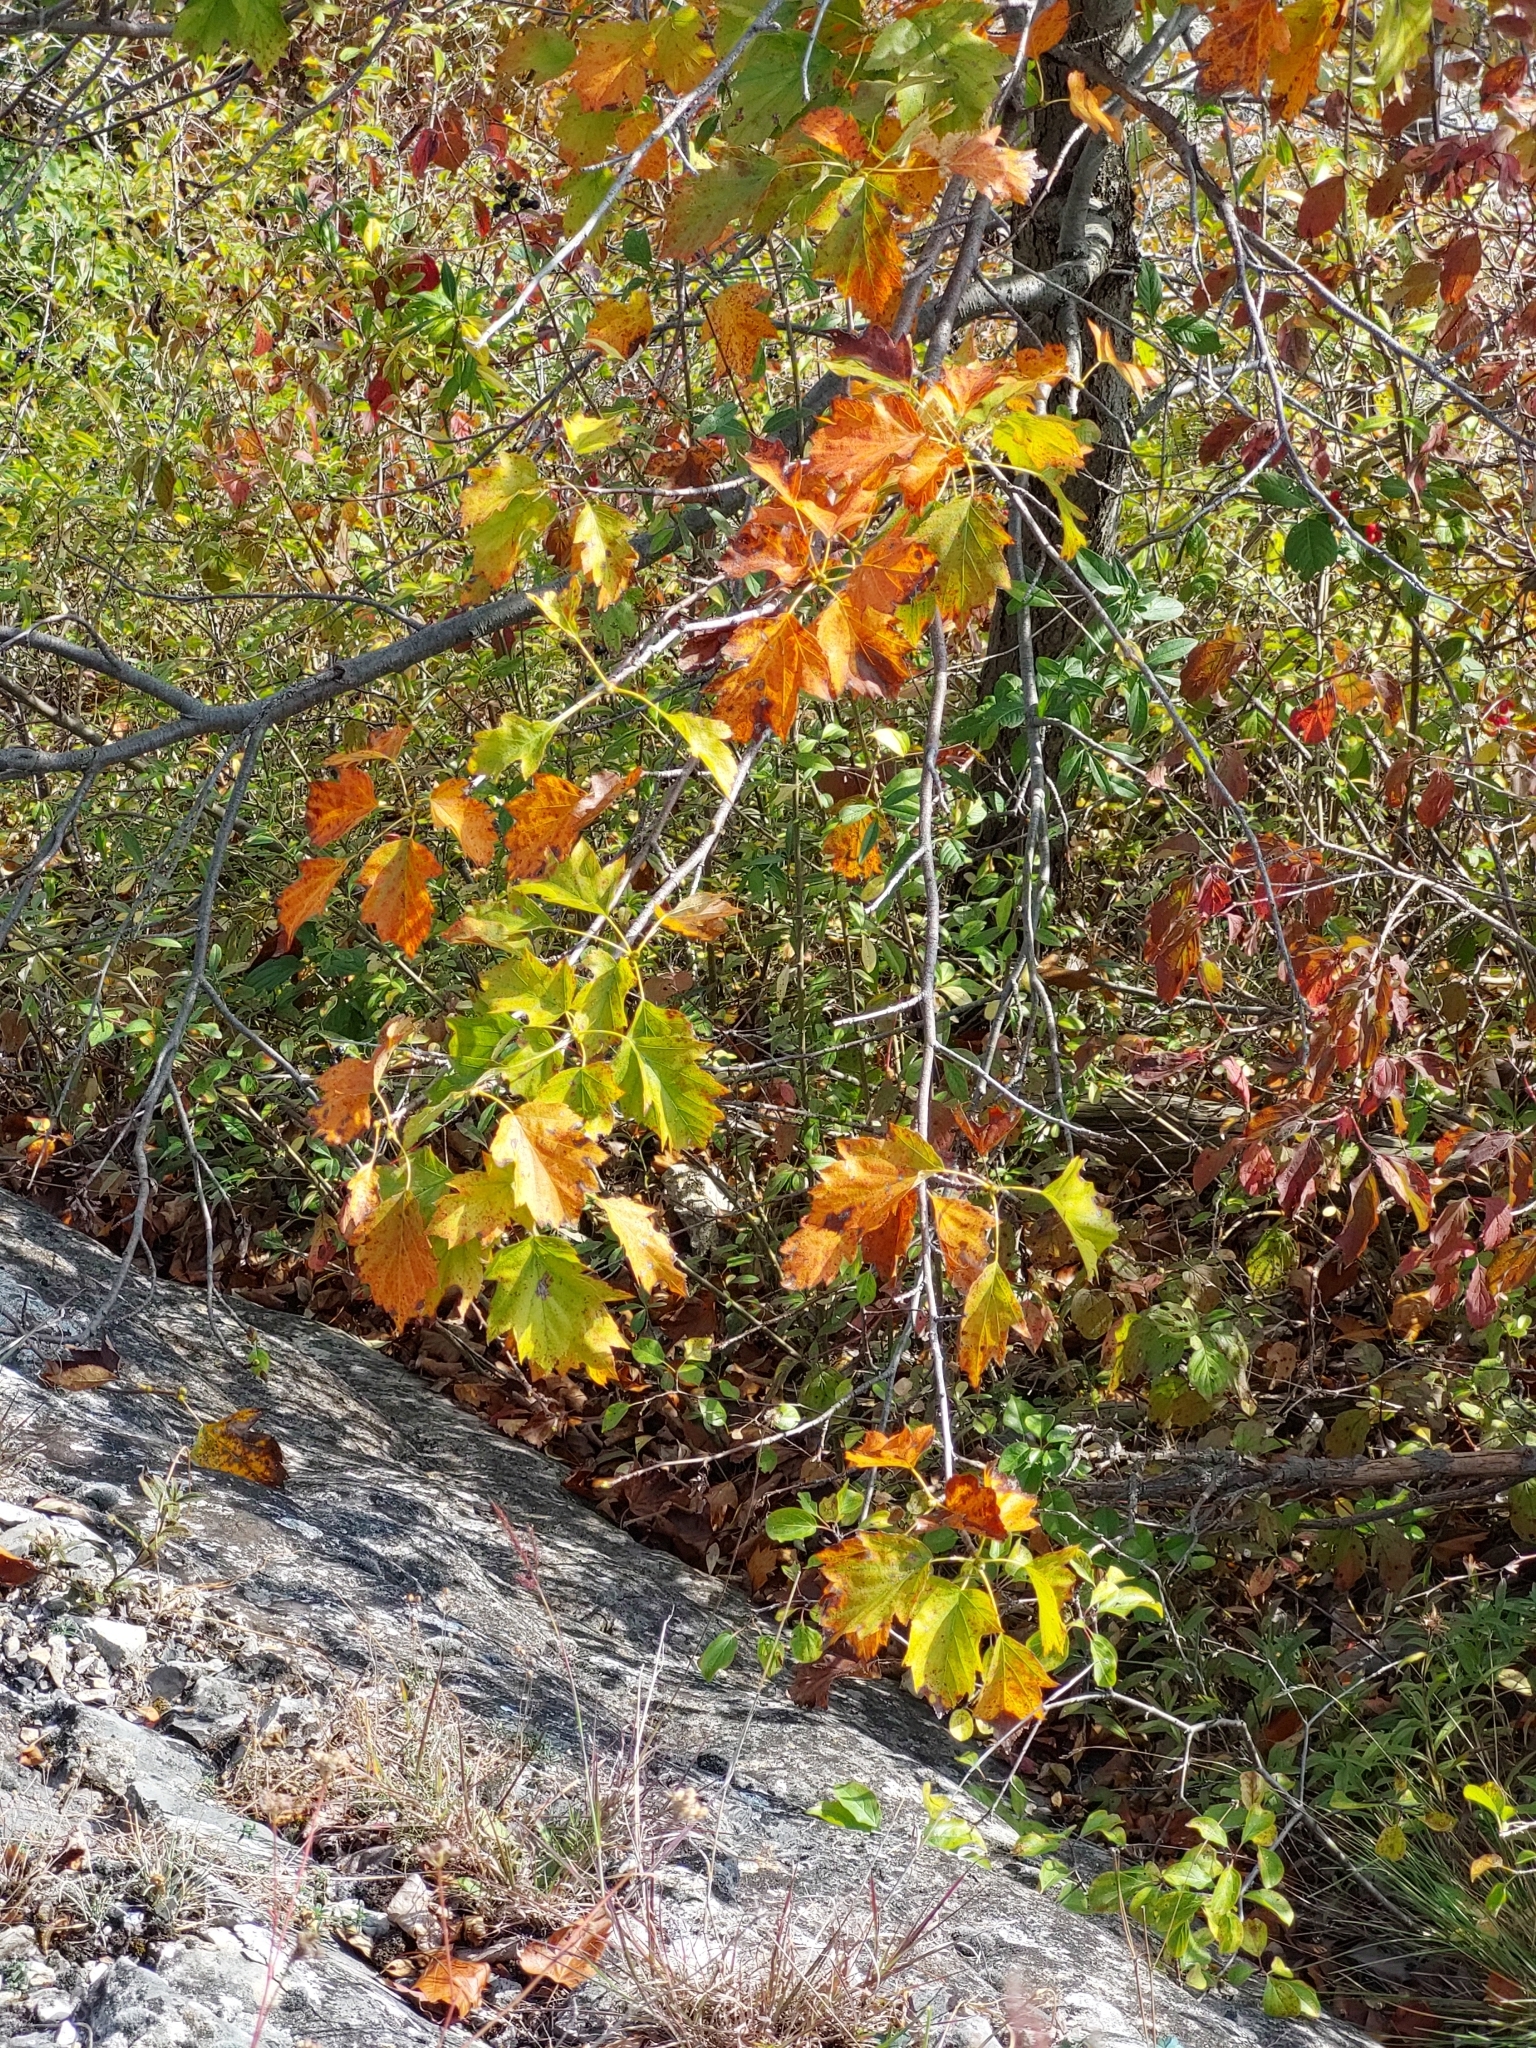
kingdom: Plantae
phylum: Tracheophyta
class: Magnoliopsida
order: Rosales
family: Rosaceae
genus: Torminalis
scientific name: Torminalis glaberrima
